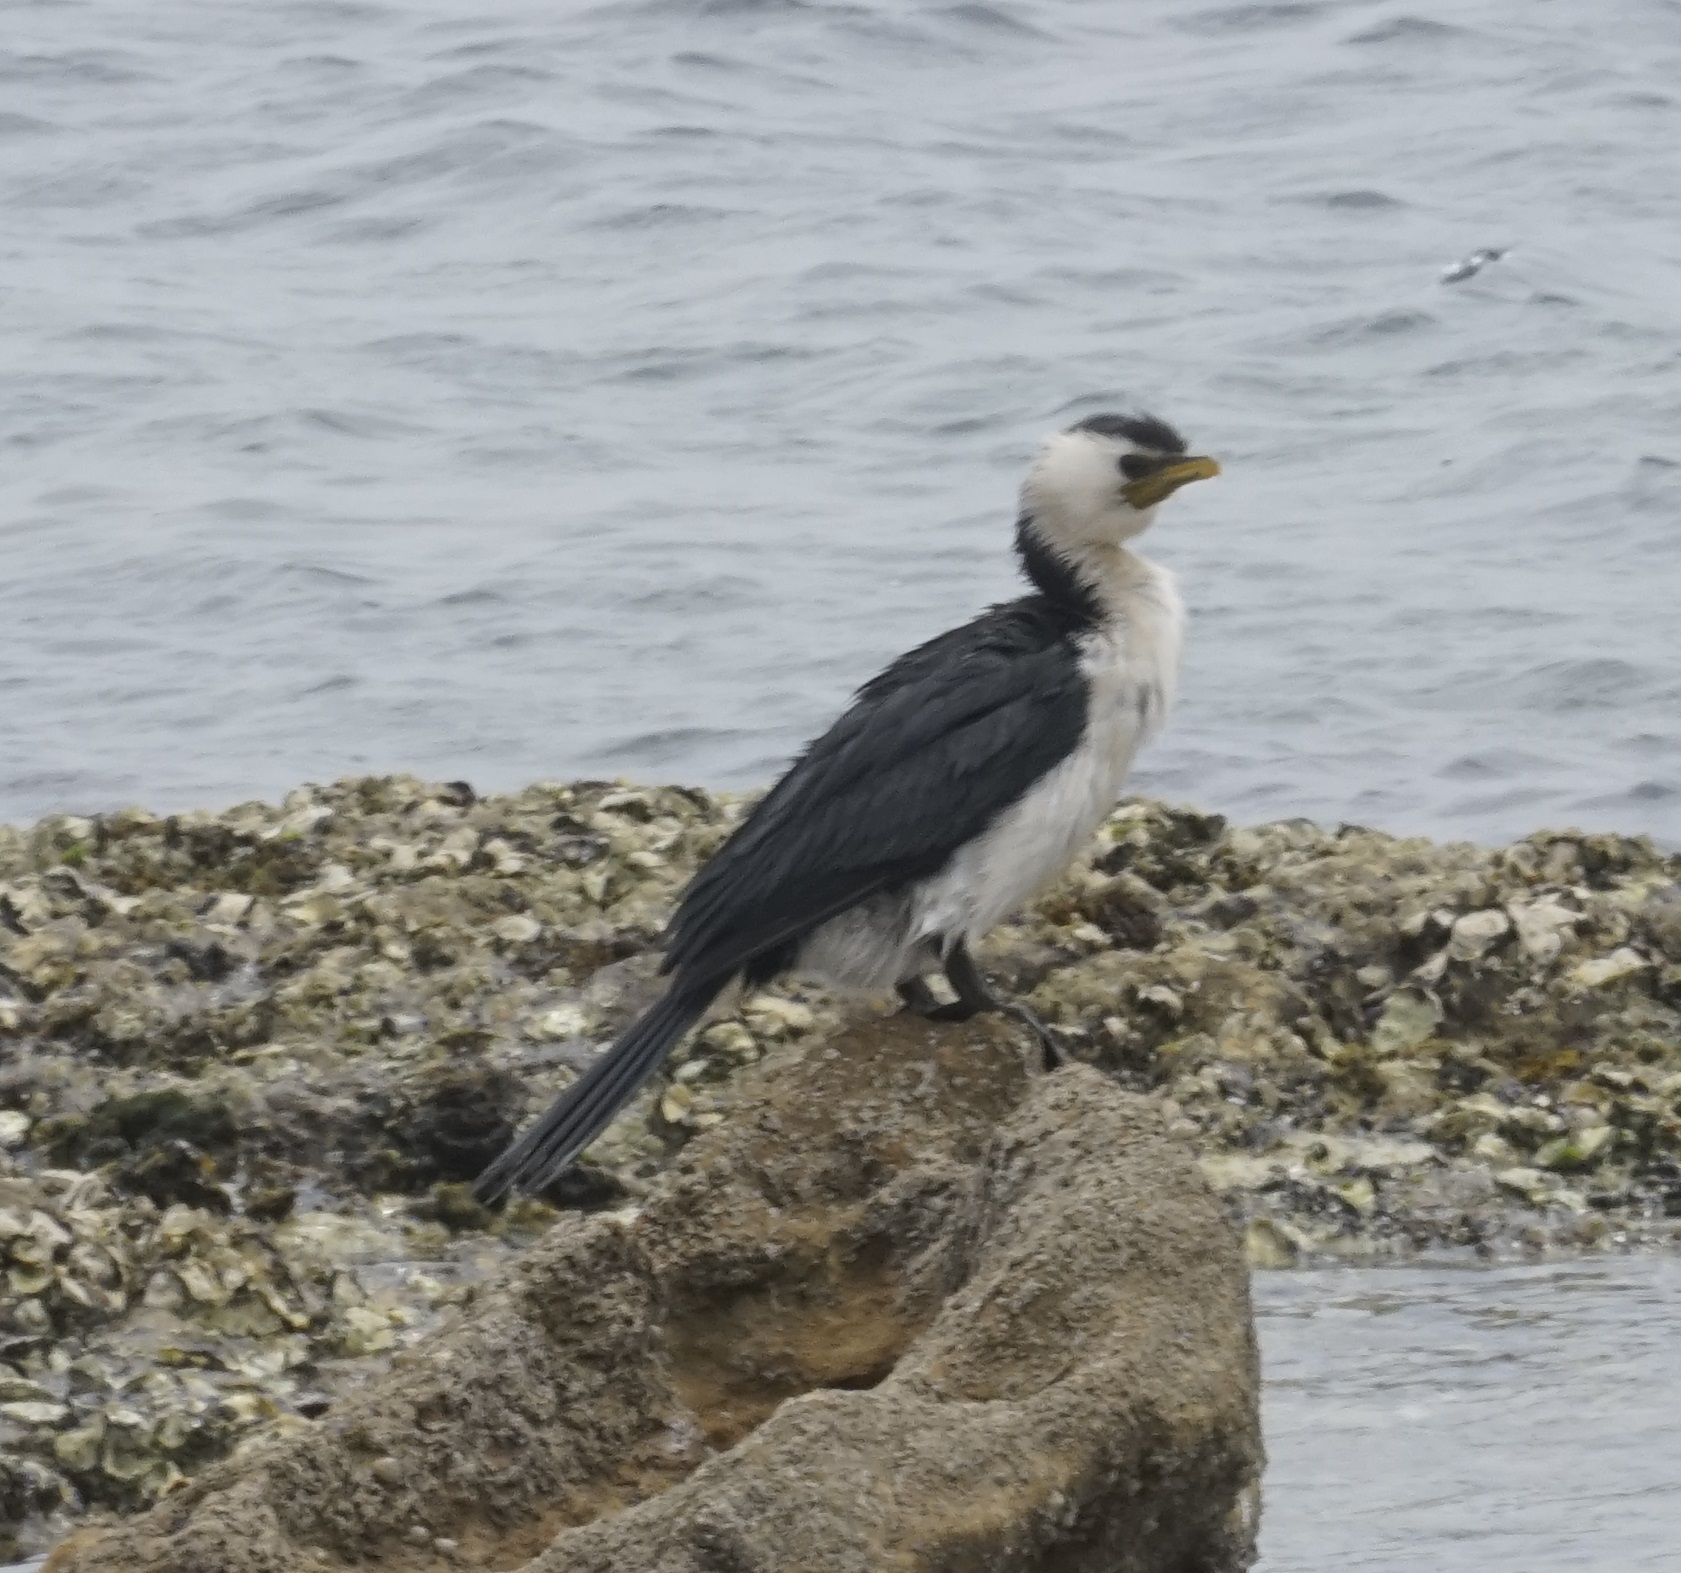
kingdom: Animalia
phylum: Chordata
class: Aves
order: Suliformes
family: Phalacrocoracidae
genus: Microcarbo
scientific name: Microcarbo melanoleucos
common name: Little pied cormorant
